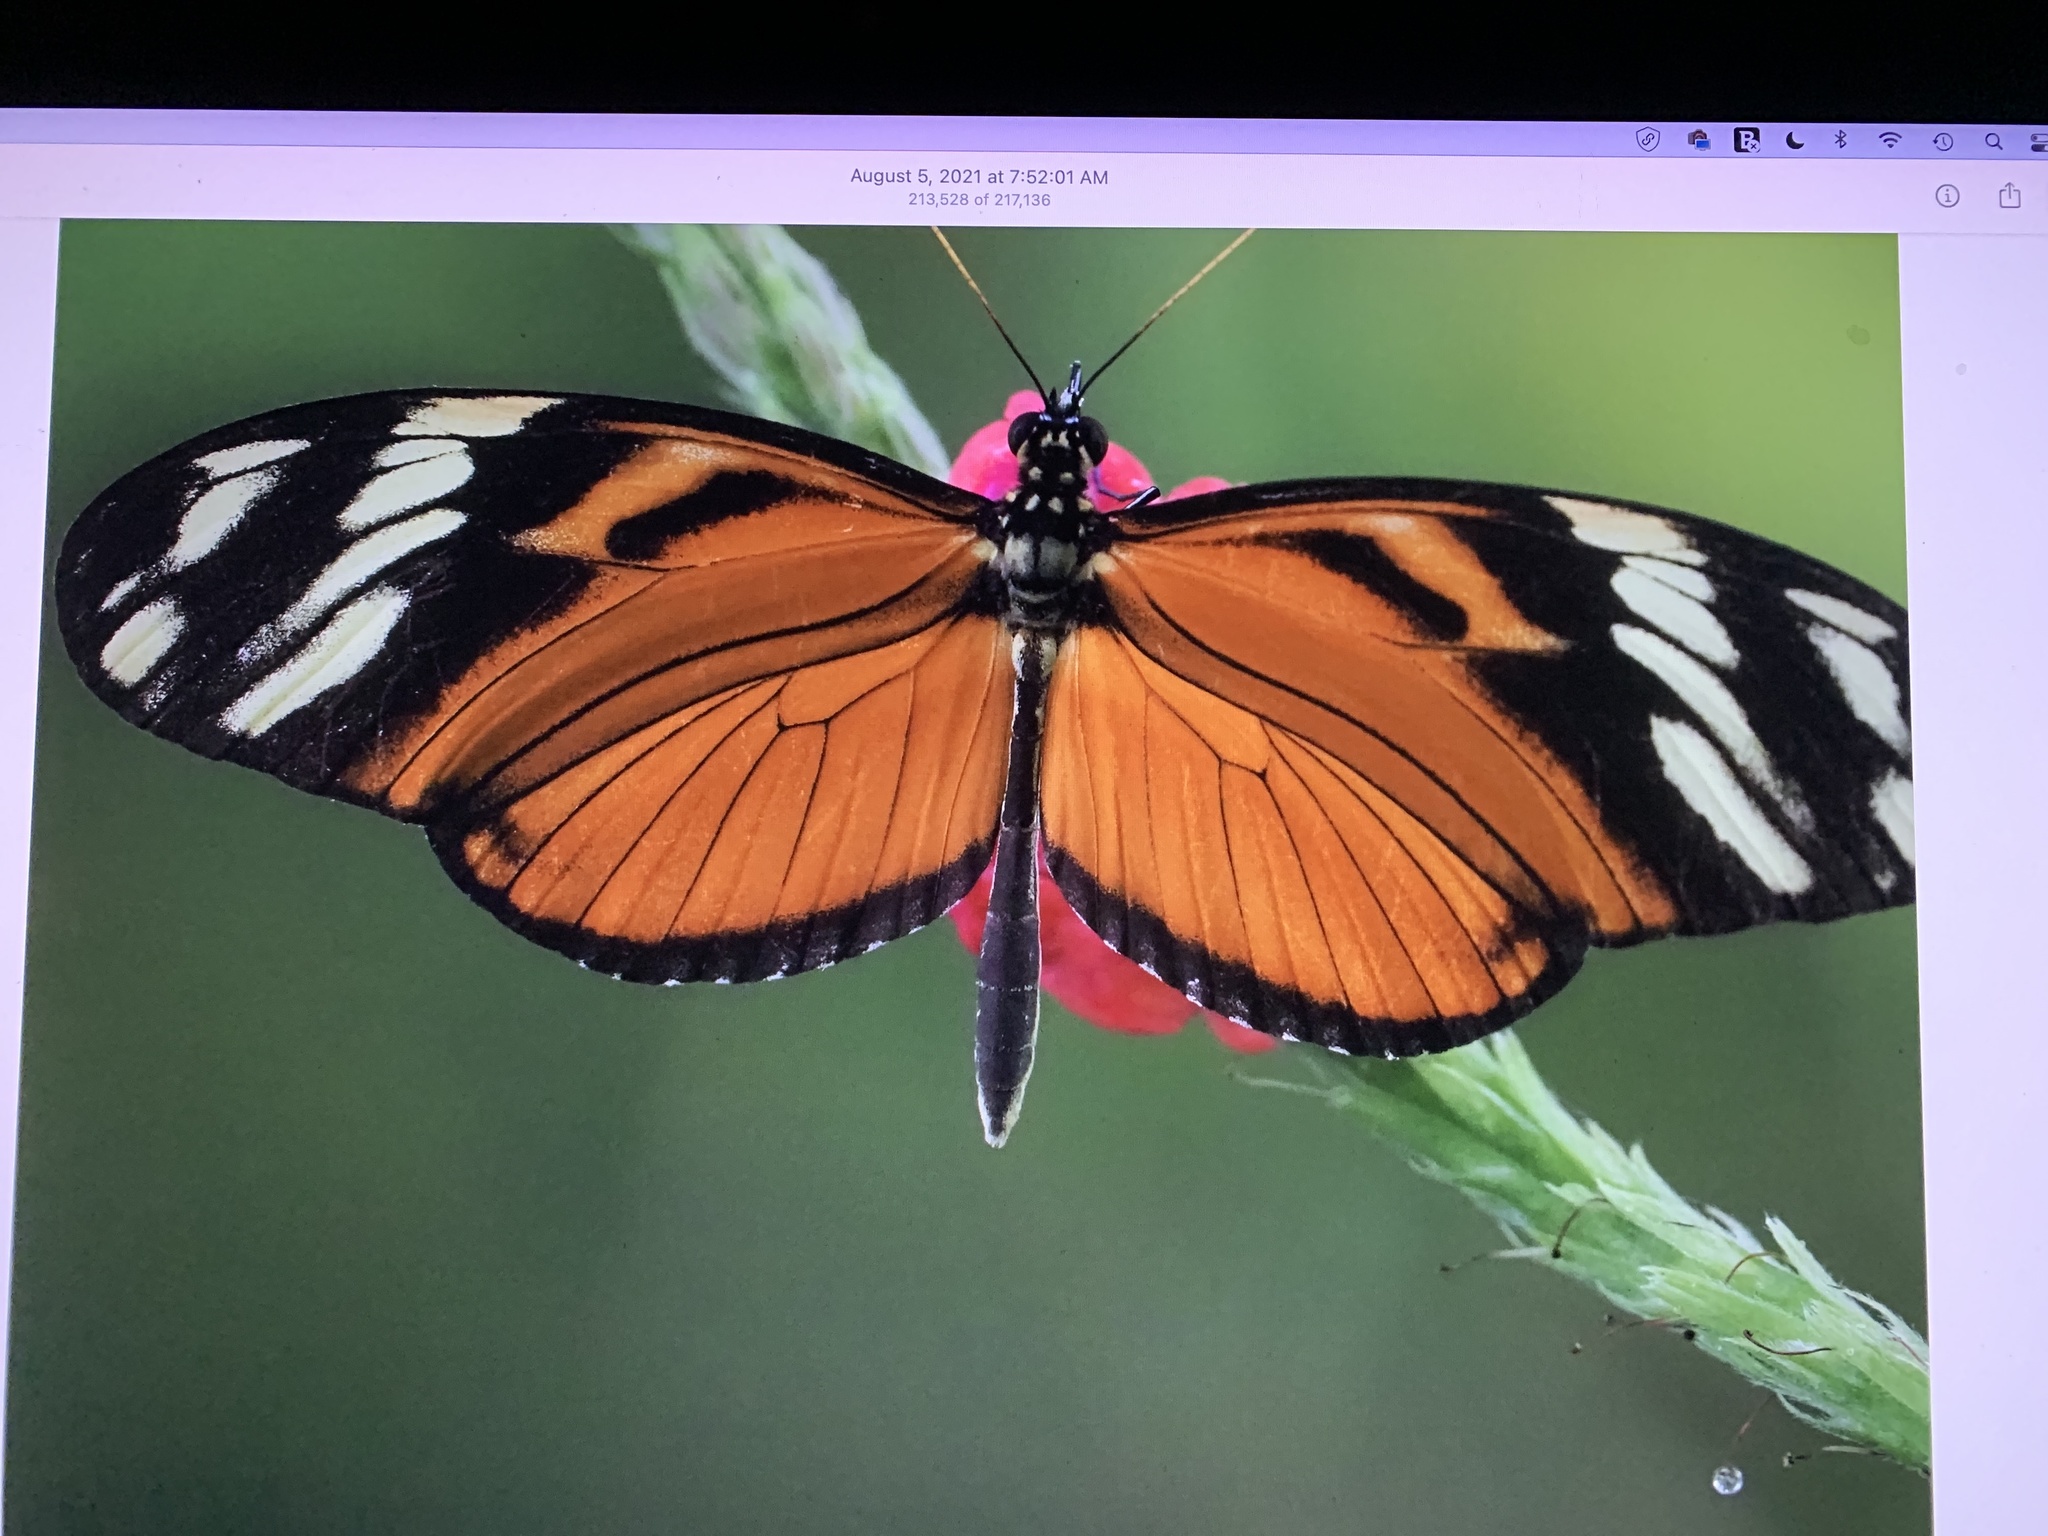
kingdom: Animalia
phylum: Arthropoda
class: Insecta
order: Lepidoptera
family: Nymphalidae
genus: Heliconius
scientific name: Heliconius ismenius
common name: Ismenius tiger
